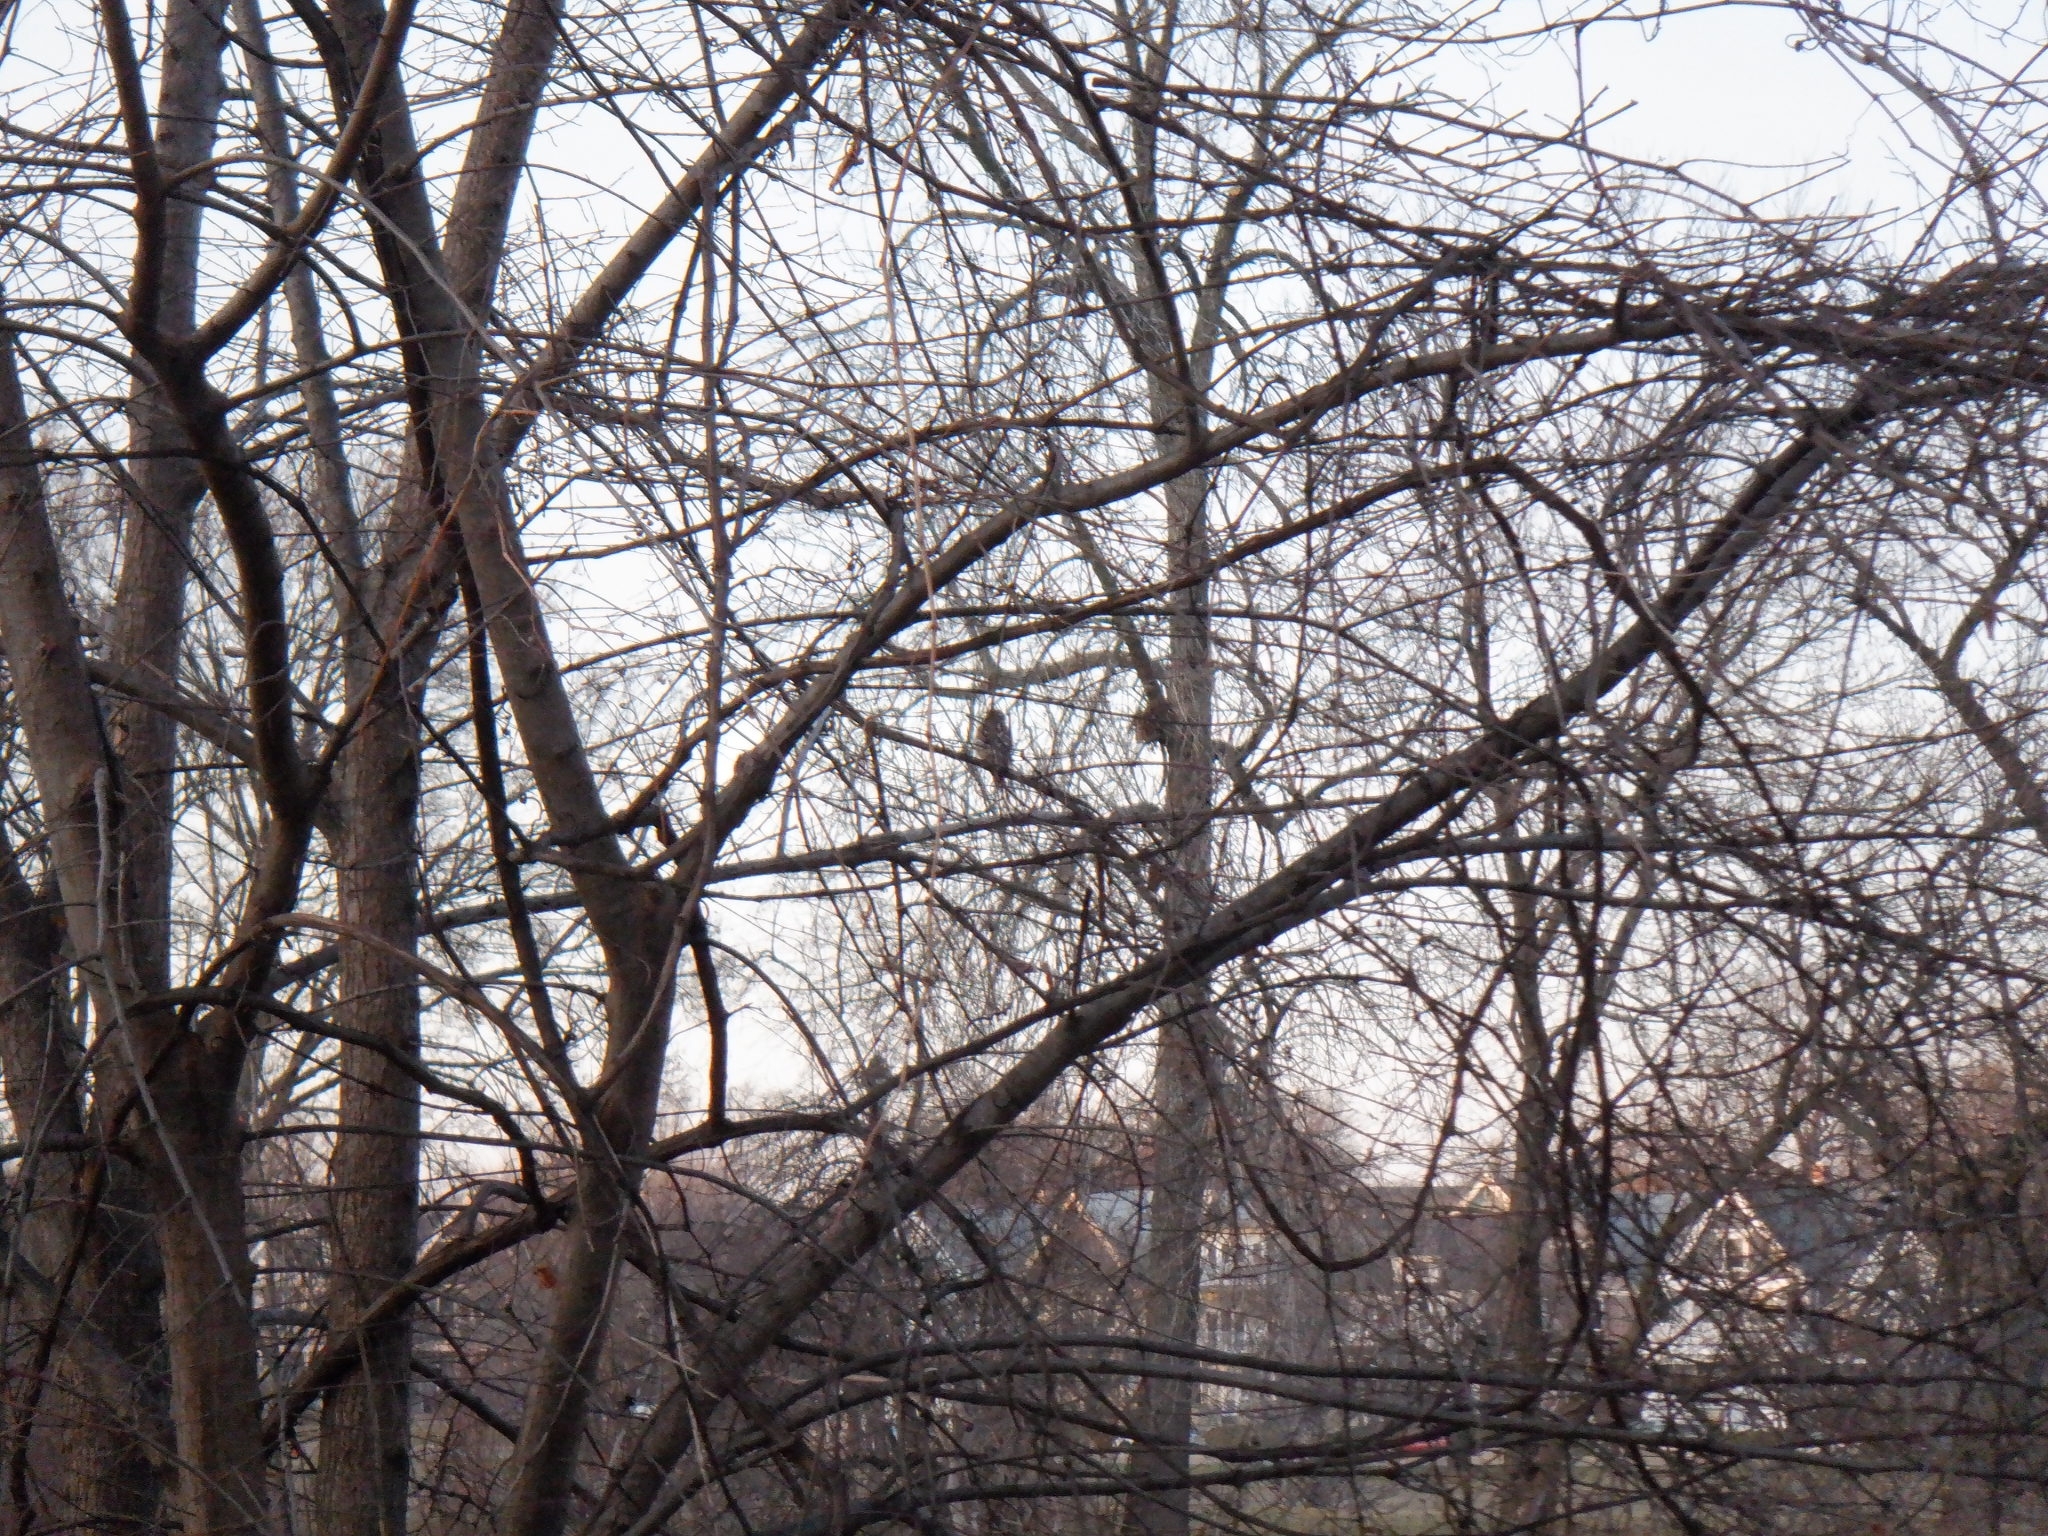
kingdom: Animalia
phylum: Chordata
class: Aves
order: Passeriformes
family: Passerellidae
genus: Spizelloides
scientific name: Spizelloides arborea
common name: American tree sparrow
